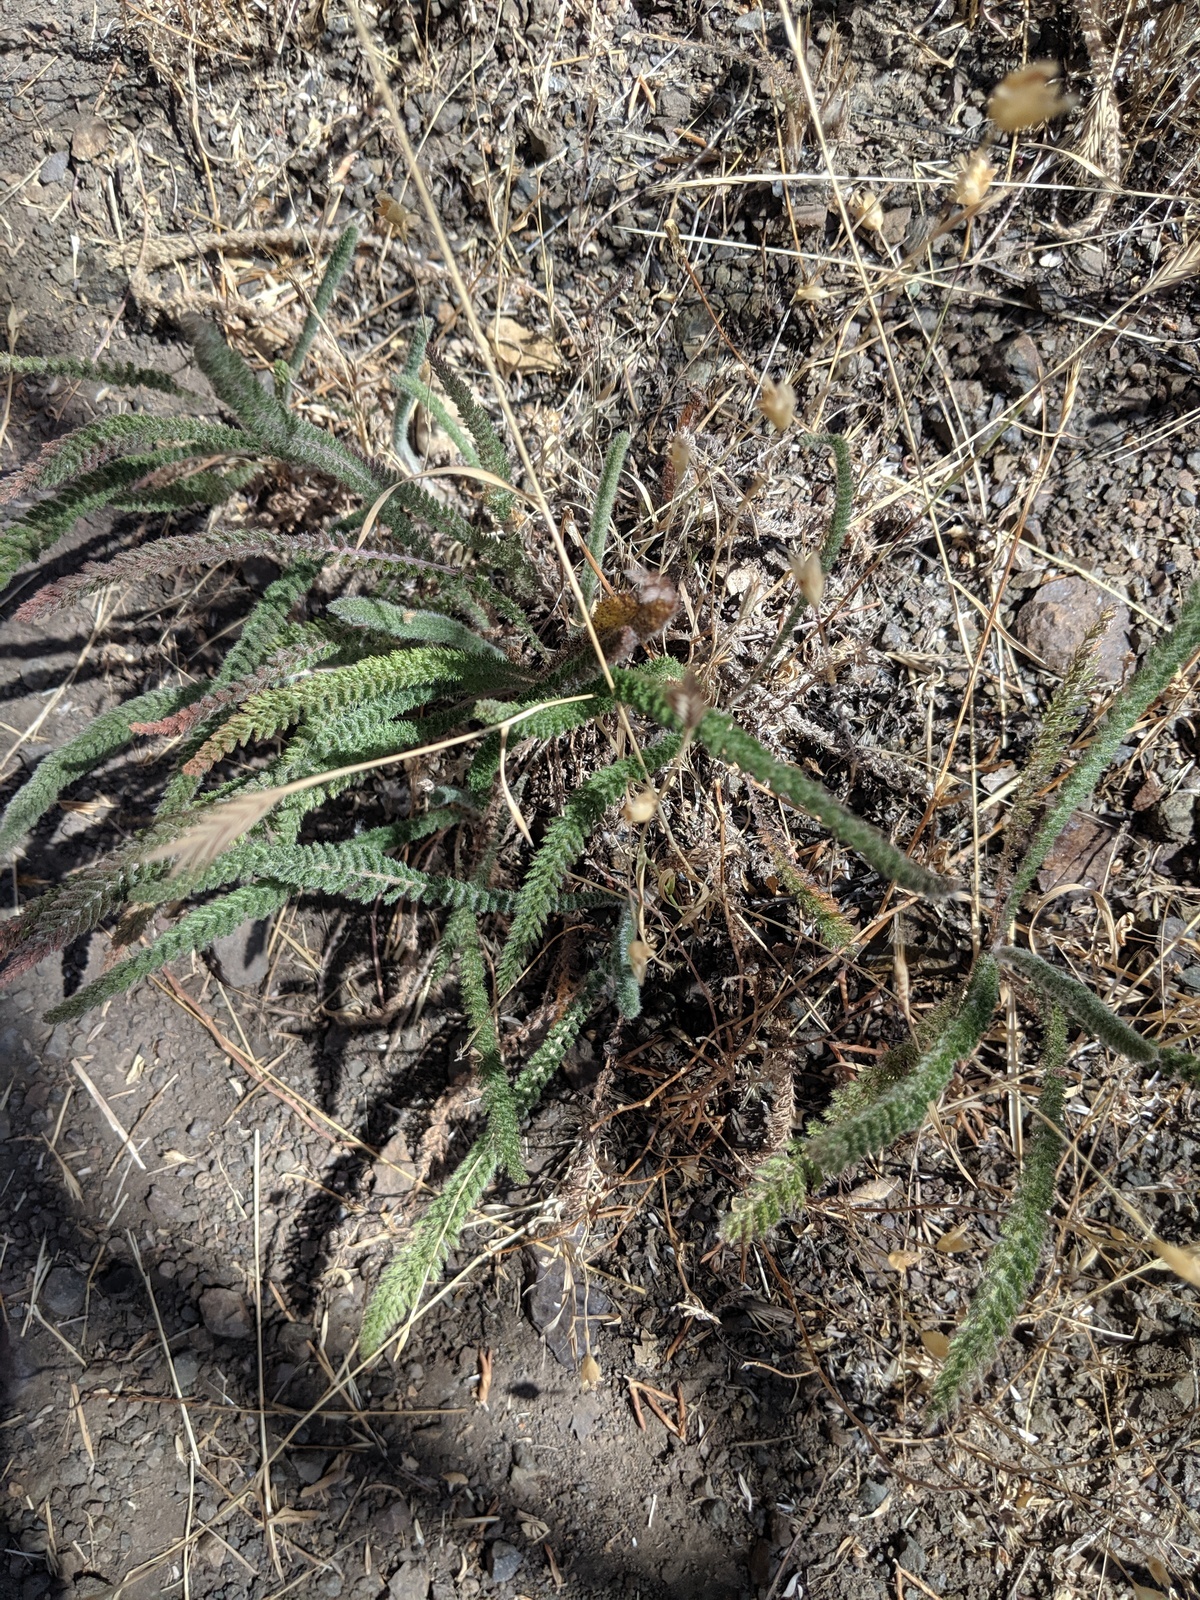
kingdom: Plantae
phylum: Tracheophyta
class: Magnoliopsida
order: Asterales
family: Asteraceae
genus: Achillea
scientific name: Achillea millefolium
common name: Yarrow
